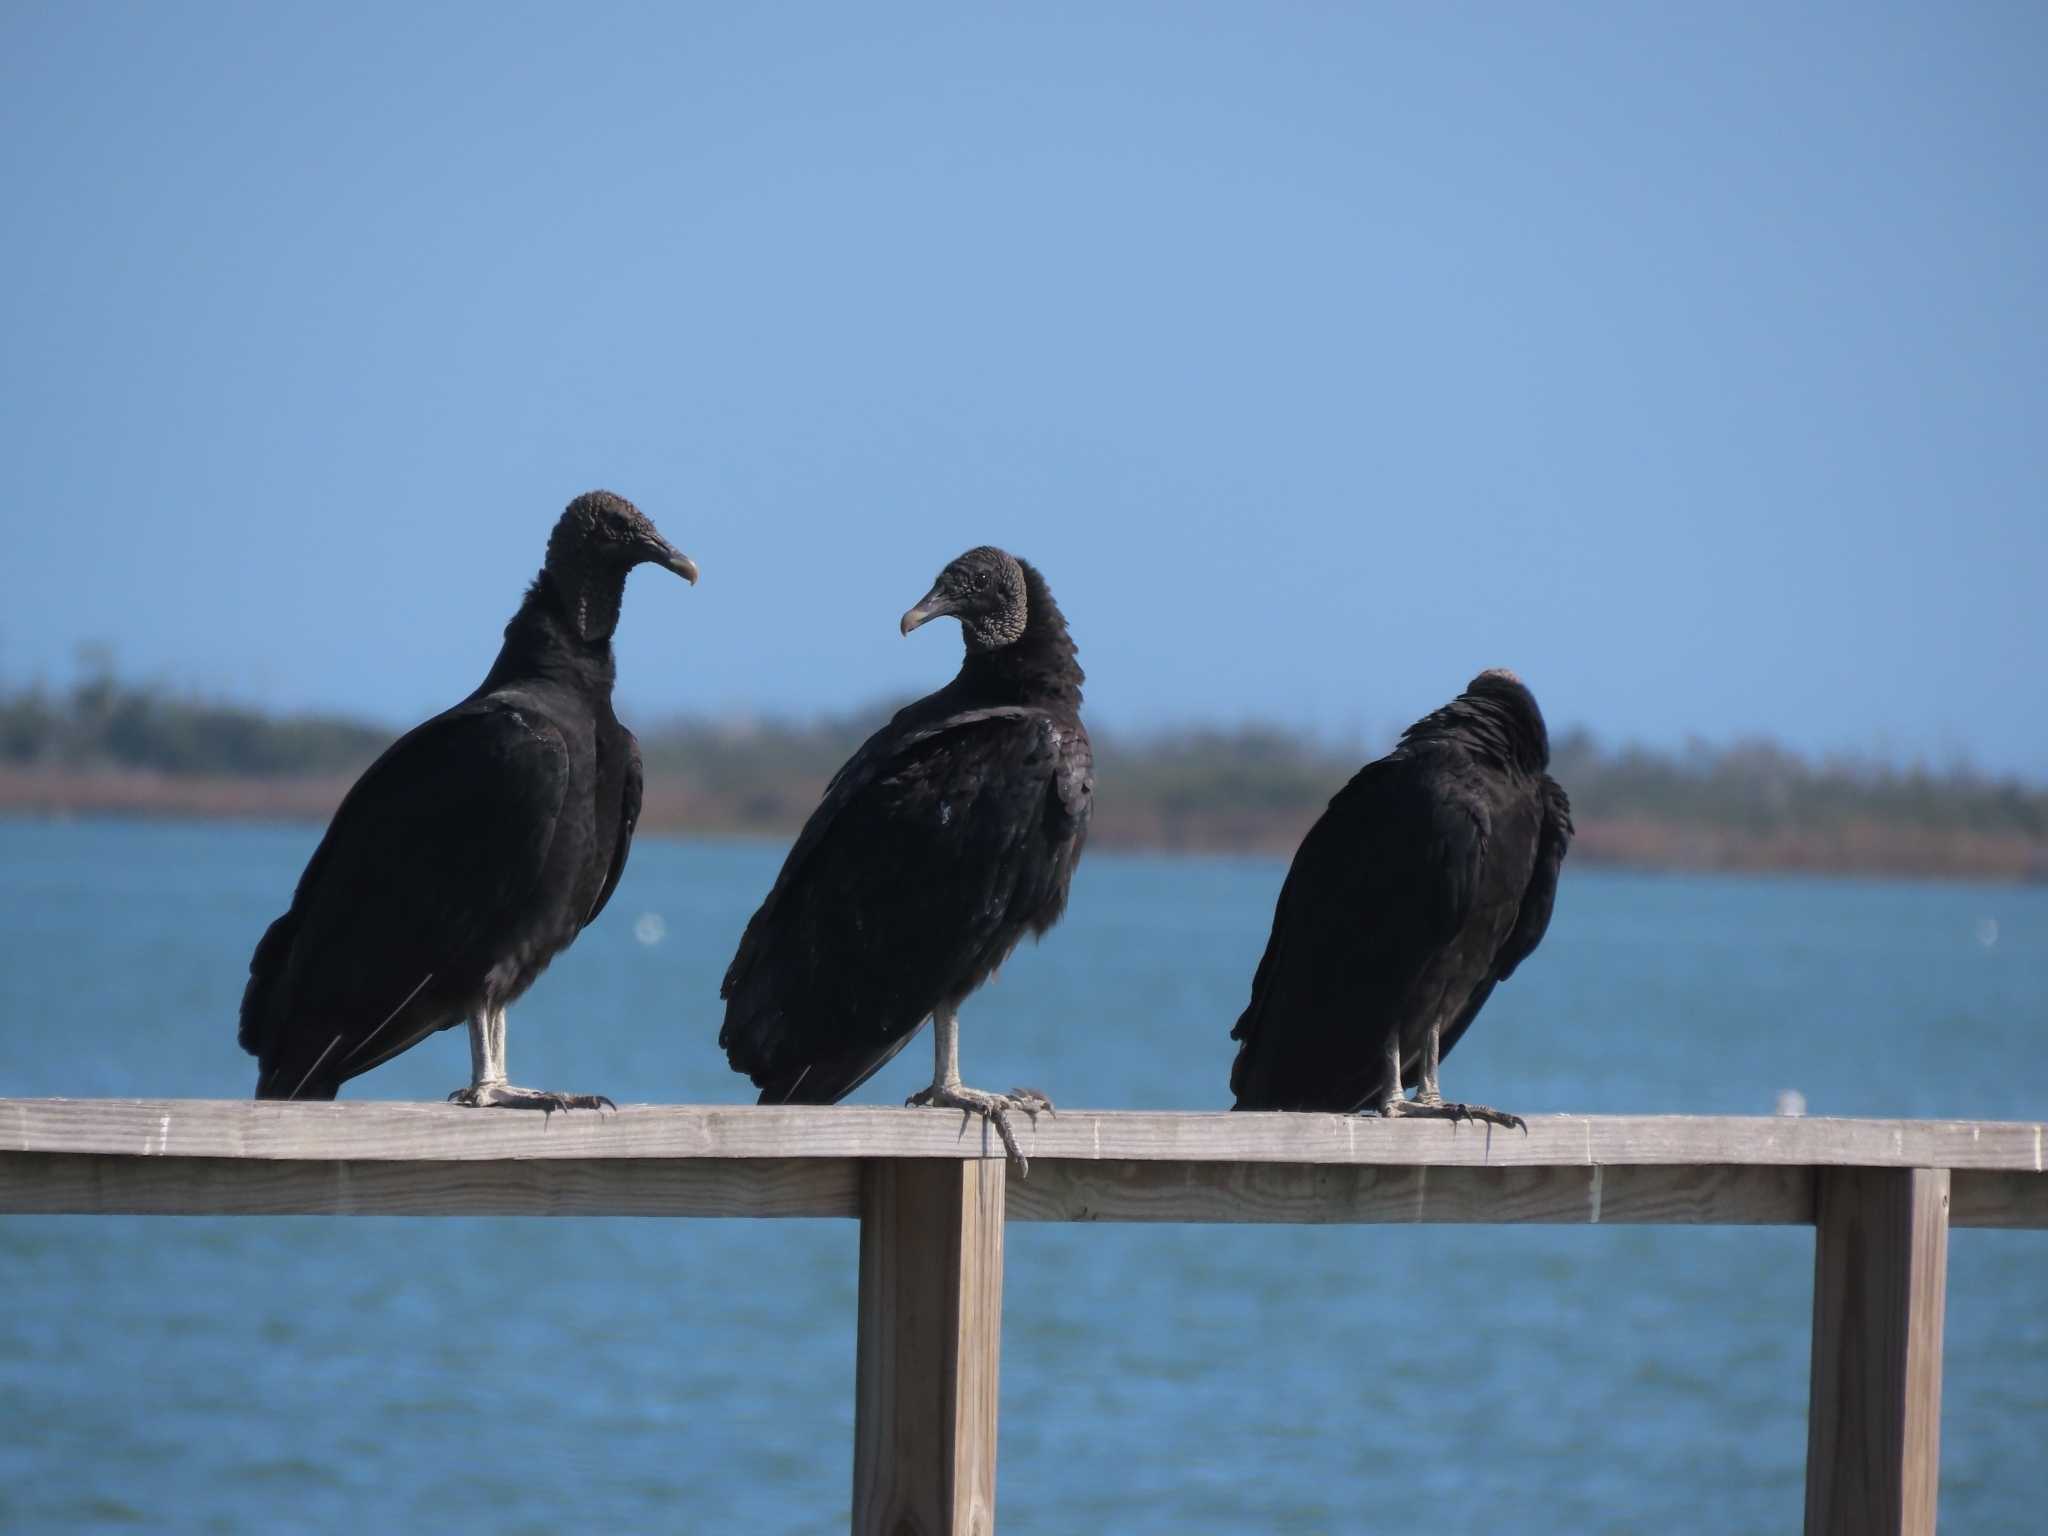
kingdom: Animalia
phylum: Chordata
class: Aves
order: Accipitriformes
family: Cathartidae
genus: Coragyps
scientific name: Coragyps atratus
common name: Black vulture
